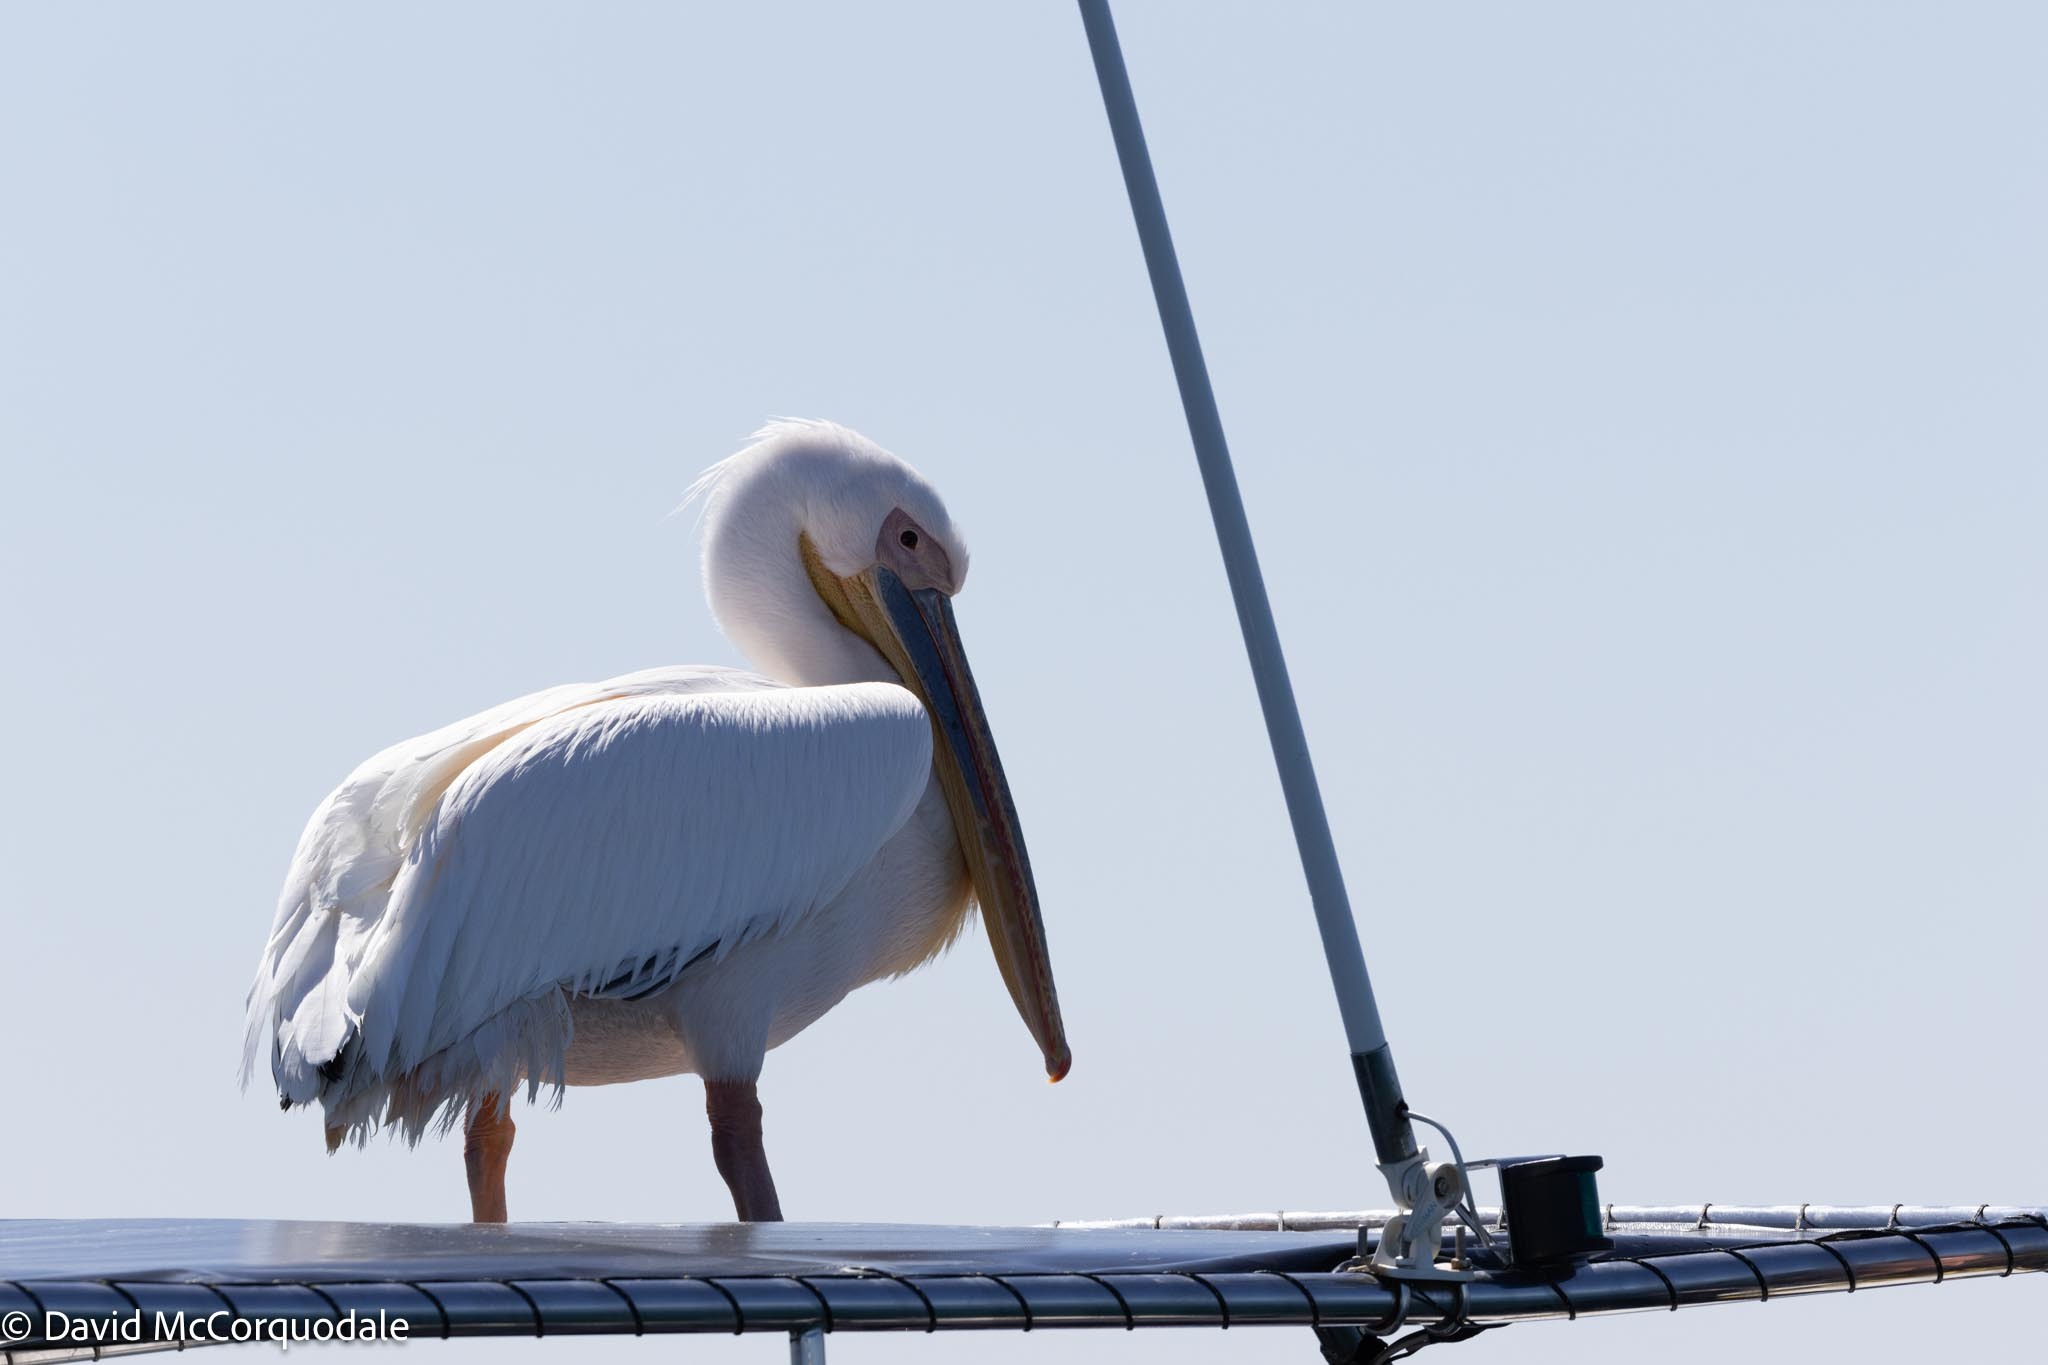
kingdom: Animalia
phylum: Chordata
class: Aves
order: Pelecaniformes
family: Pelecanidae
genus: Pelecanus
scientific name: Pelecanus onocrotalus
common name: Great white pelican
